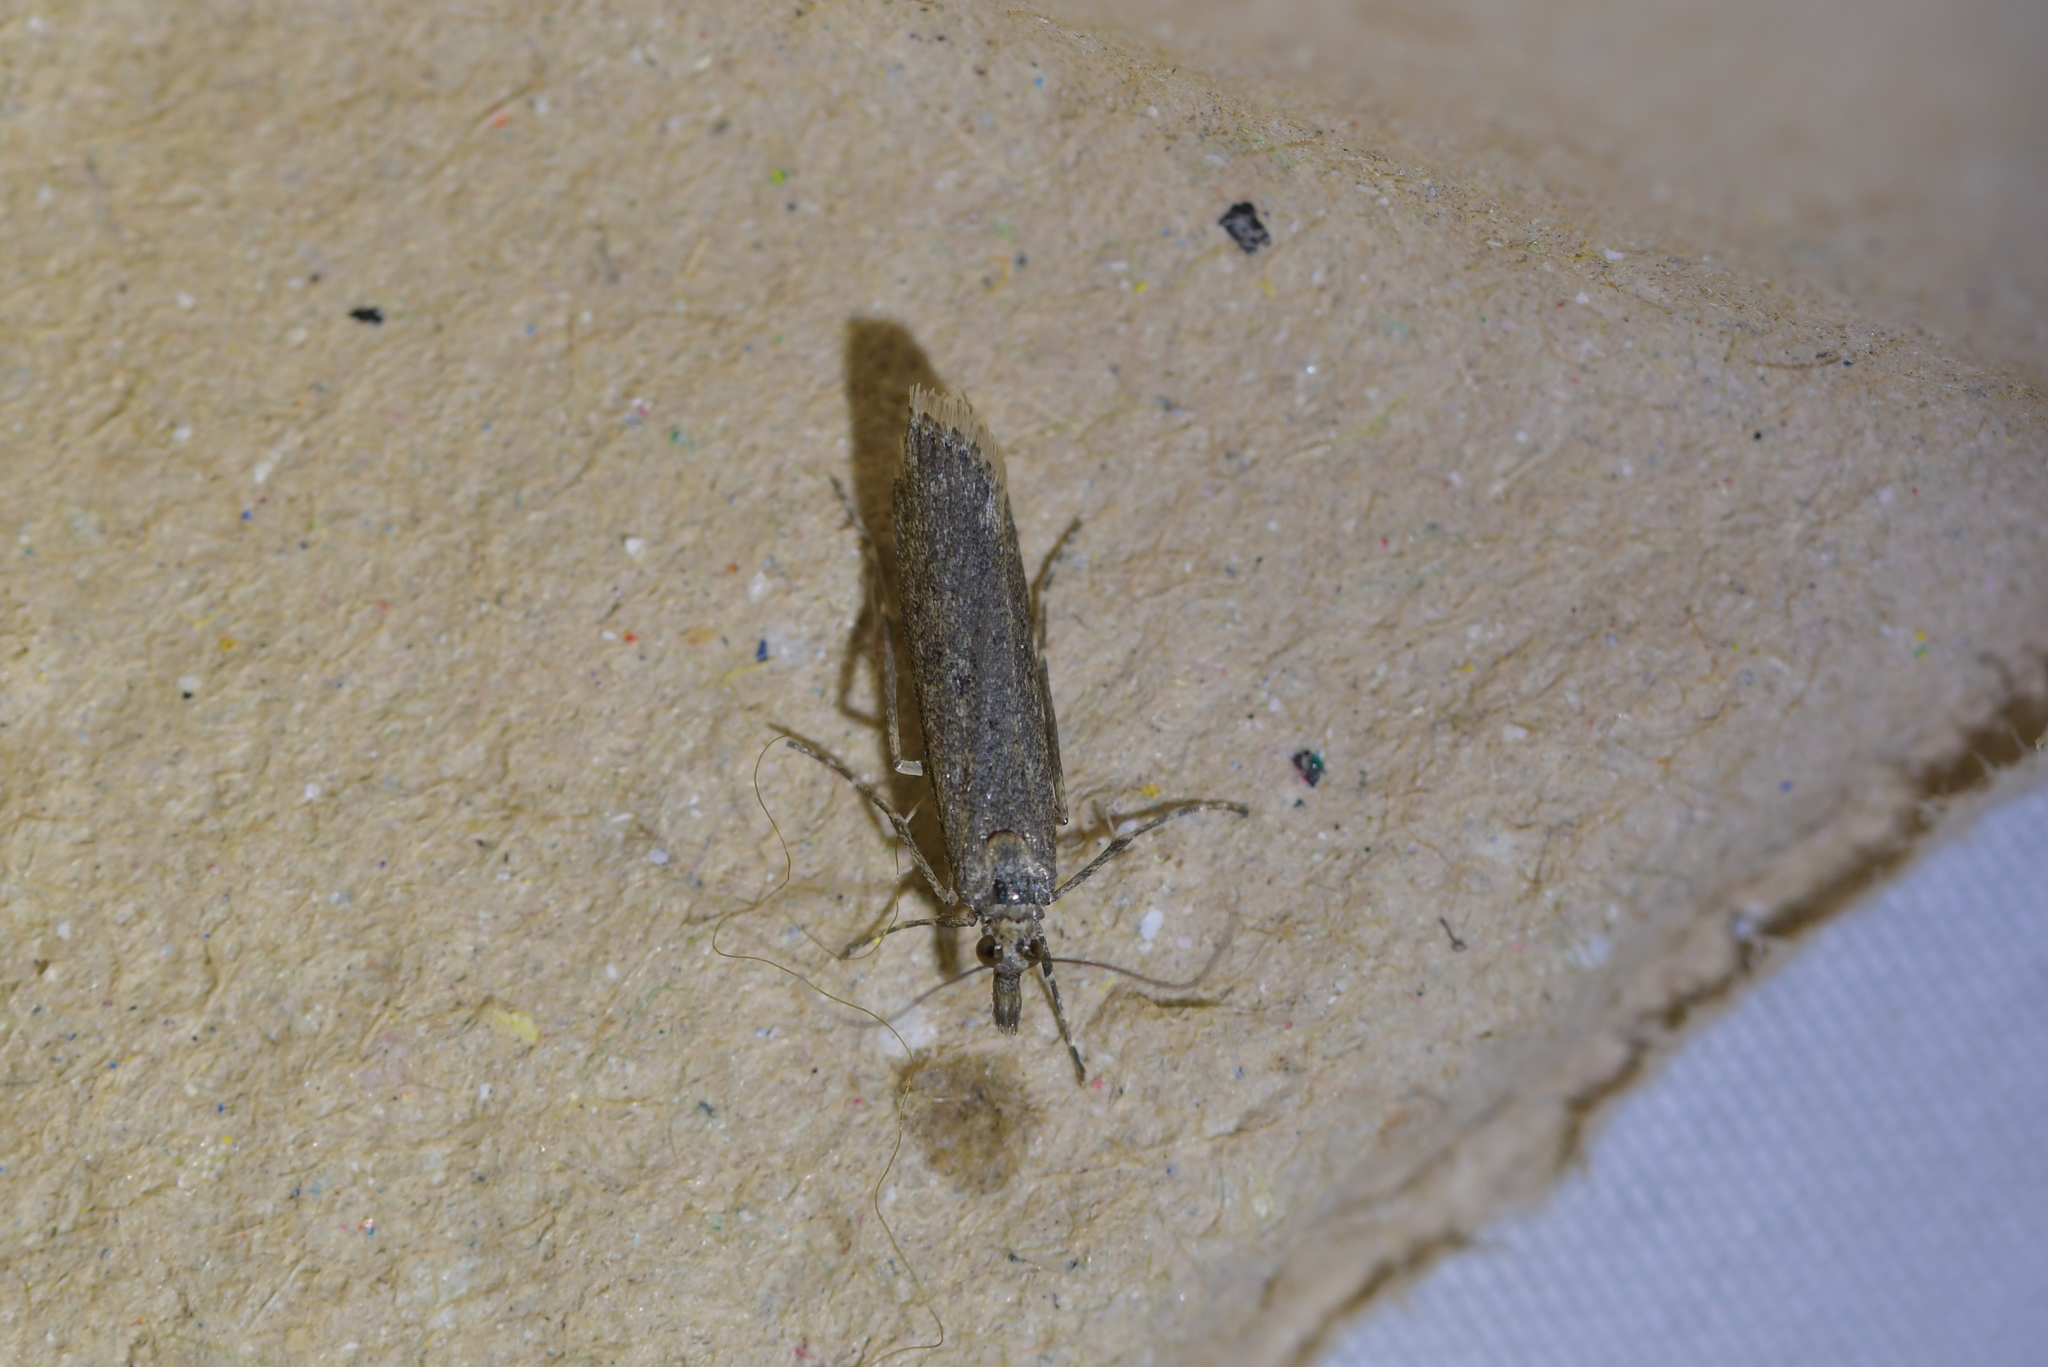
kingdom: Animalia
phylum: Arthropoda
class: Insecta
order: Lepidoptera
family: Crambidae
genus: Eudonia
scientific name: Eudonia leptalea
